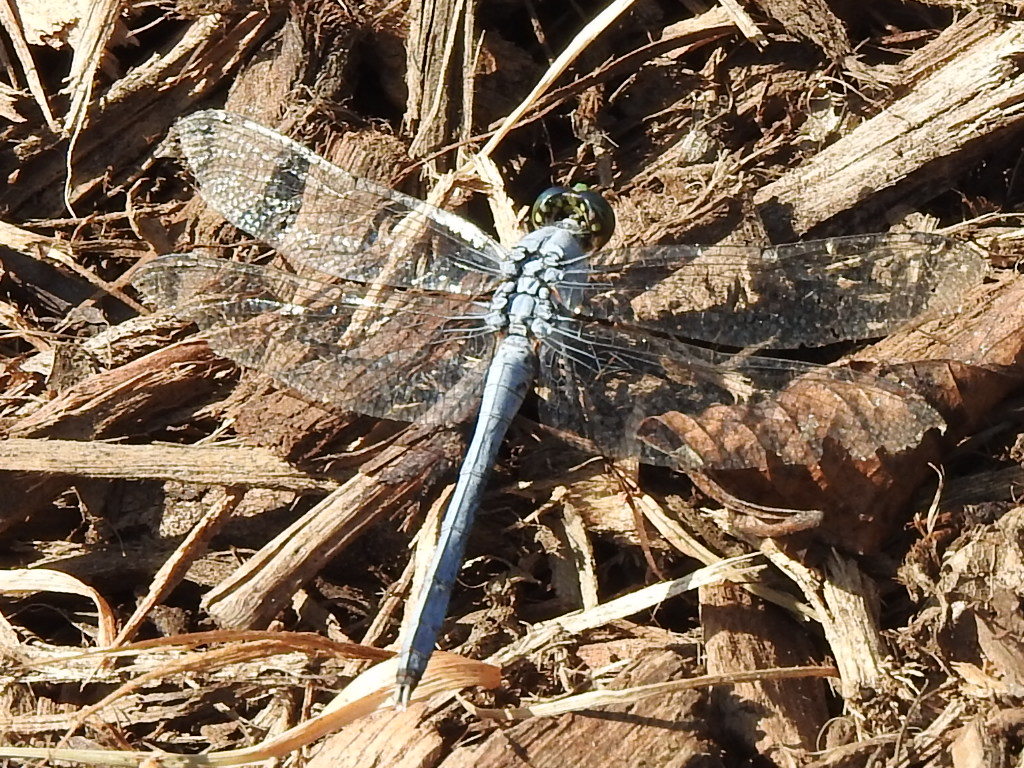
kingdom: Animalia
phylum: Arthropoda
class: Insecta
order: Odonata
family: Libellulidae
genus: Erythemis
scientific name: Erythemis simplicicollis
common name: Eastern pondhawk
